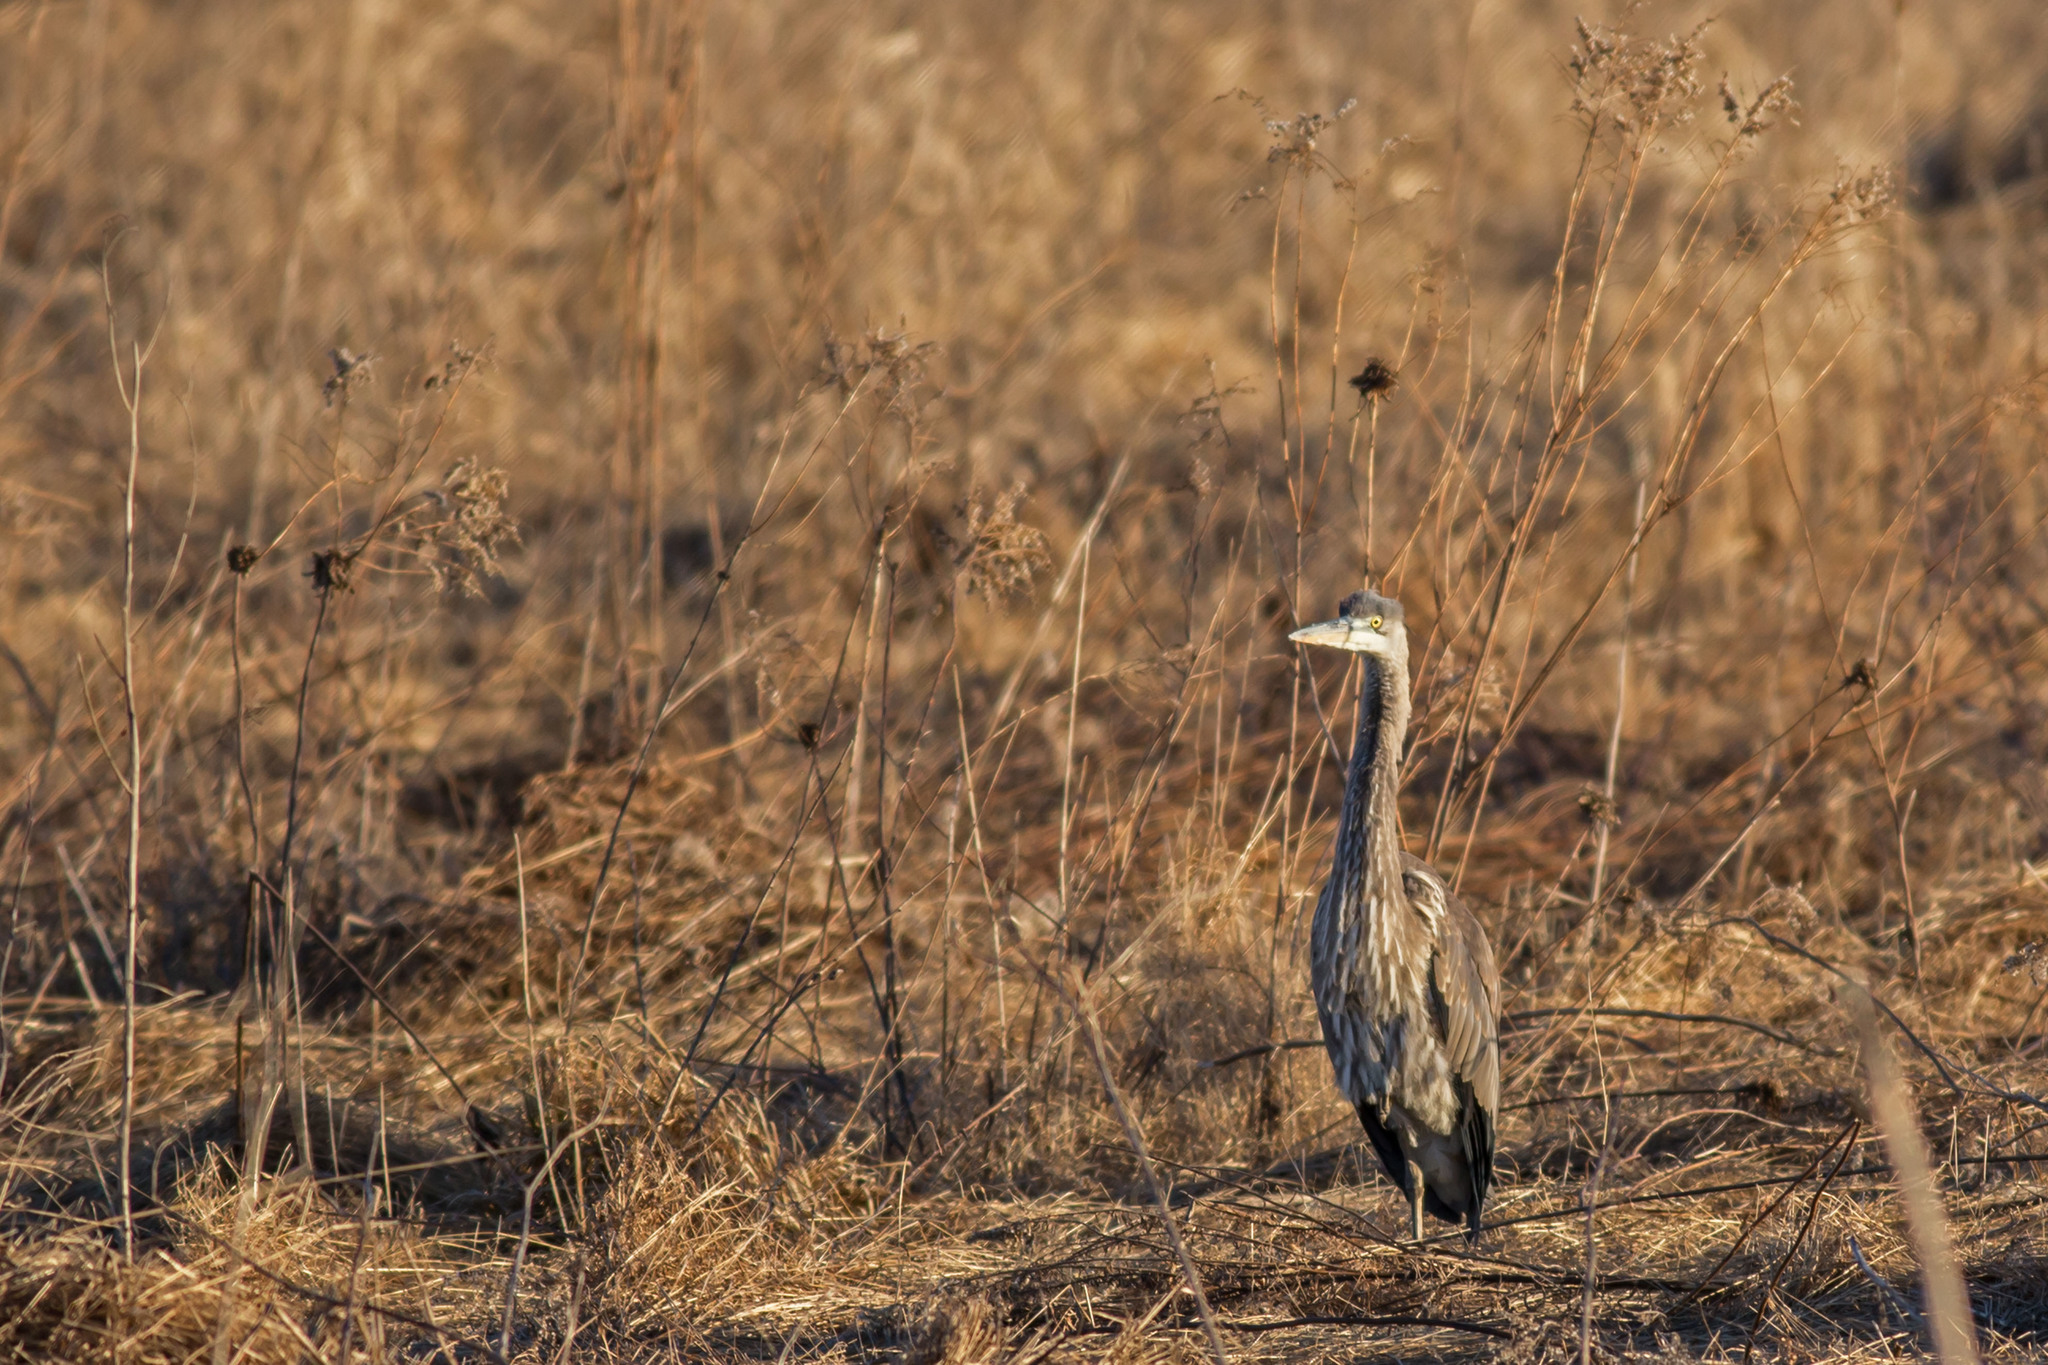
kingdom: Animalia
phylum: Chordata
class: Aves
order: Pelecaniformes
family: Ardeidae
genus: Ardea
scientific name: Ardea herodias
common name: Great blue heron
